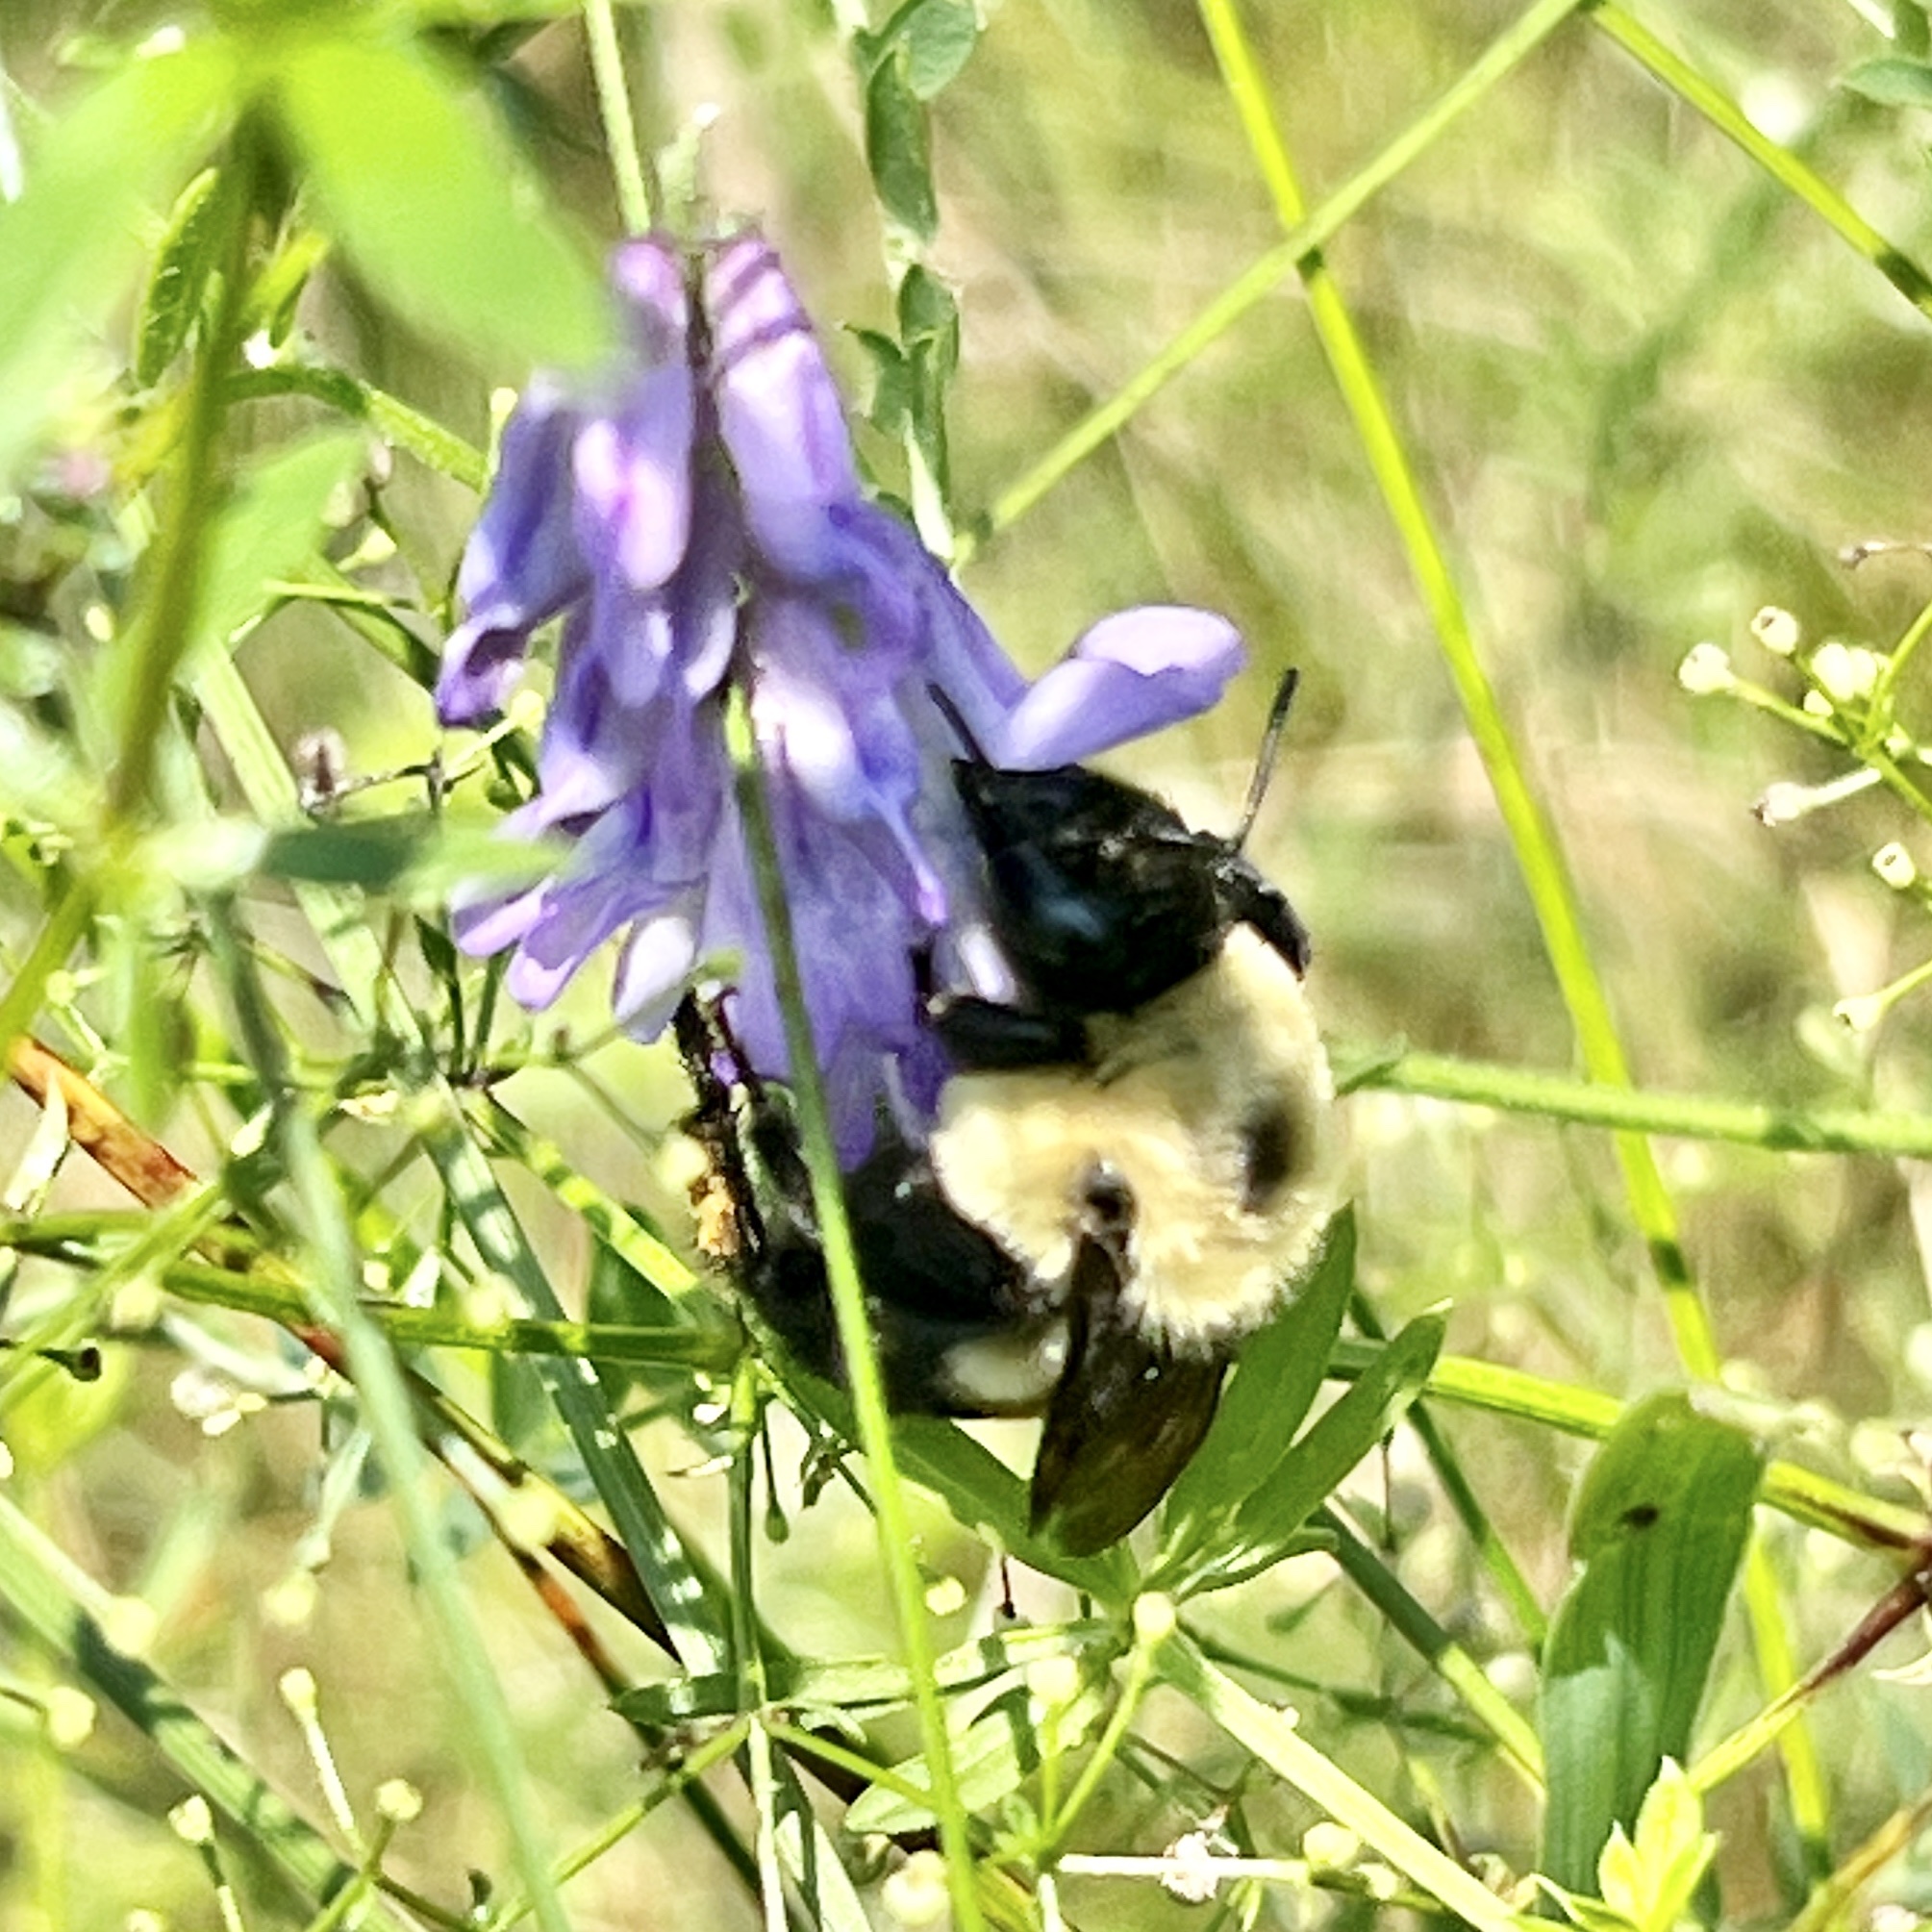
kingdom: Animalia
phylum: Arthropoda
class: Insecta
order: Hymenoptera
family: Apidae
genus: Bombus
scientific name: Bombus griseocollis
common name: Brown-belted bumble bee
